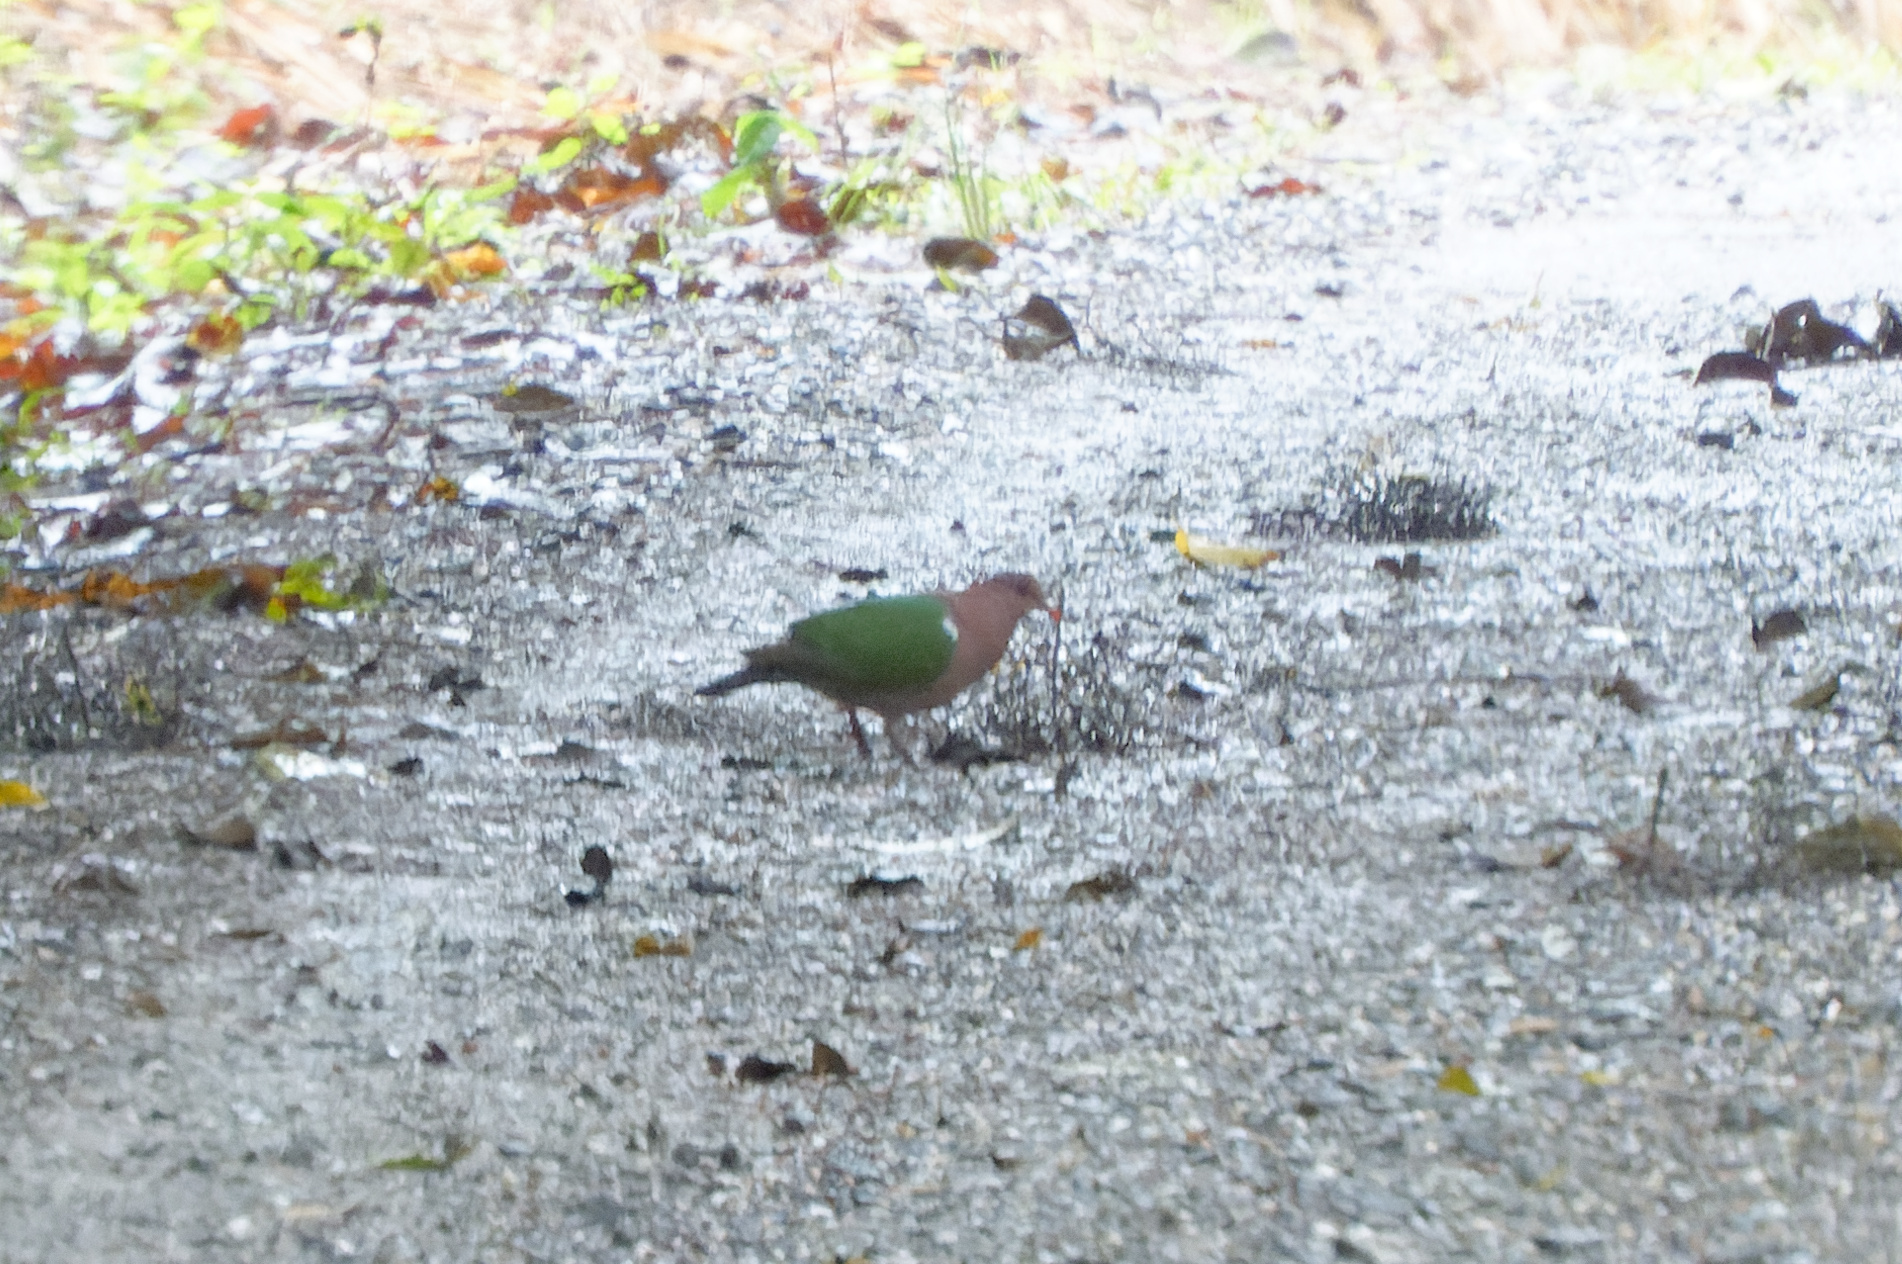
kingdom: Animalia
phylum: Chordata
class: Aves
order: Columbiformes
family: Columbidae
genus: Chalcophaps
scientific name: Chalcophaps longirostris
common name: Pacific emerald dove
